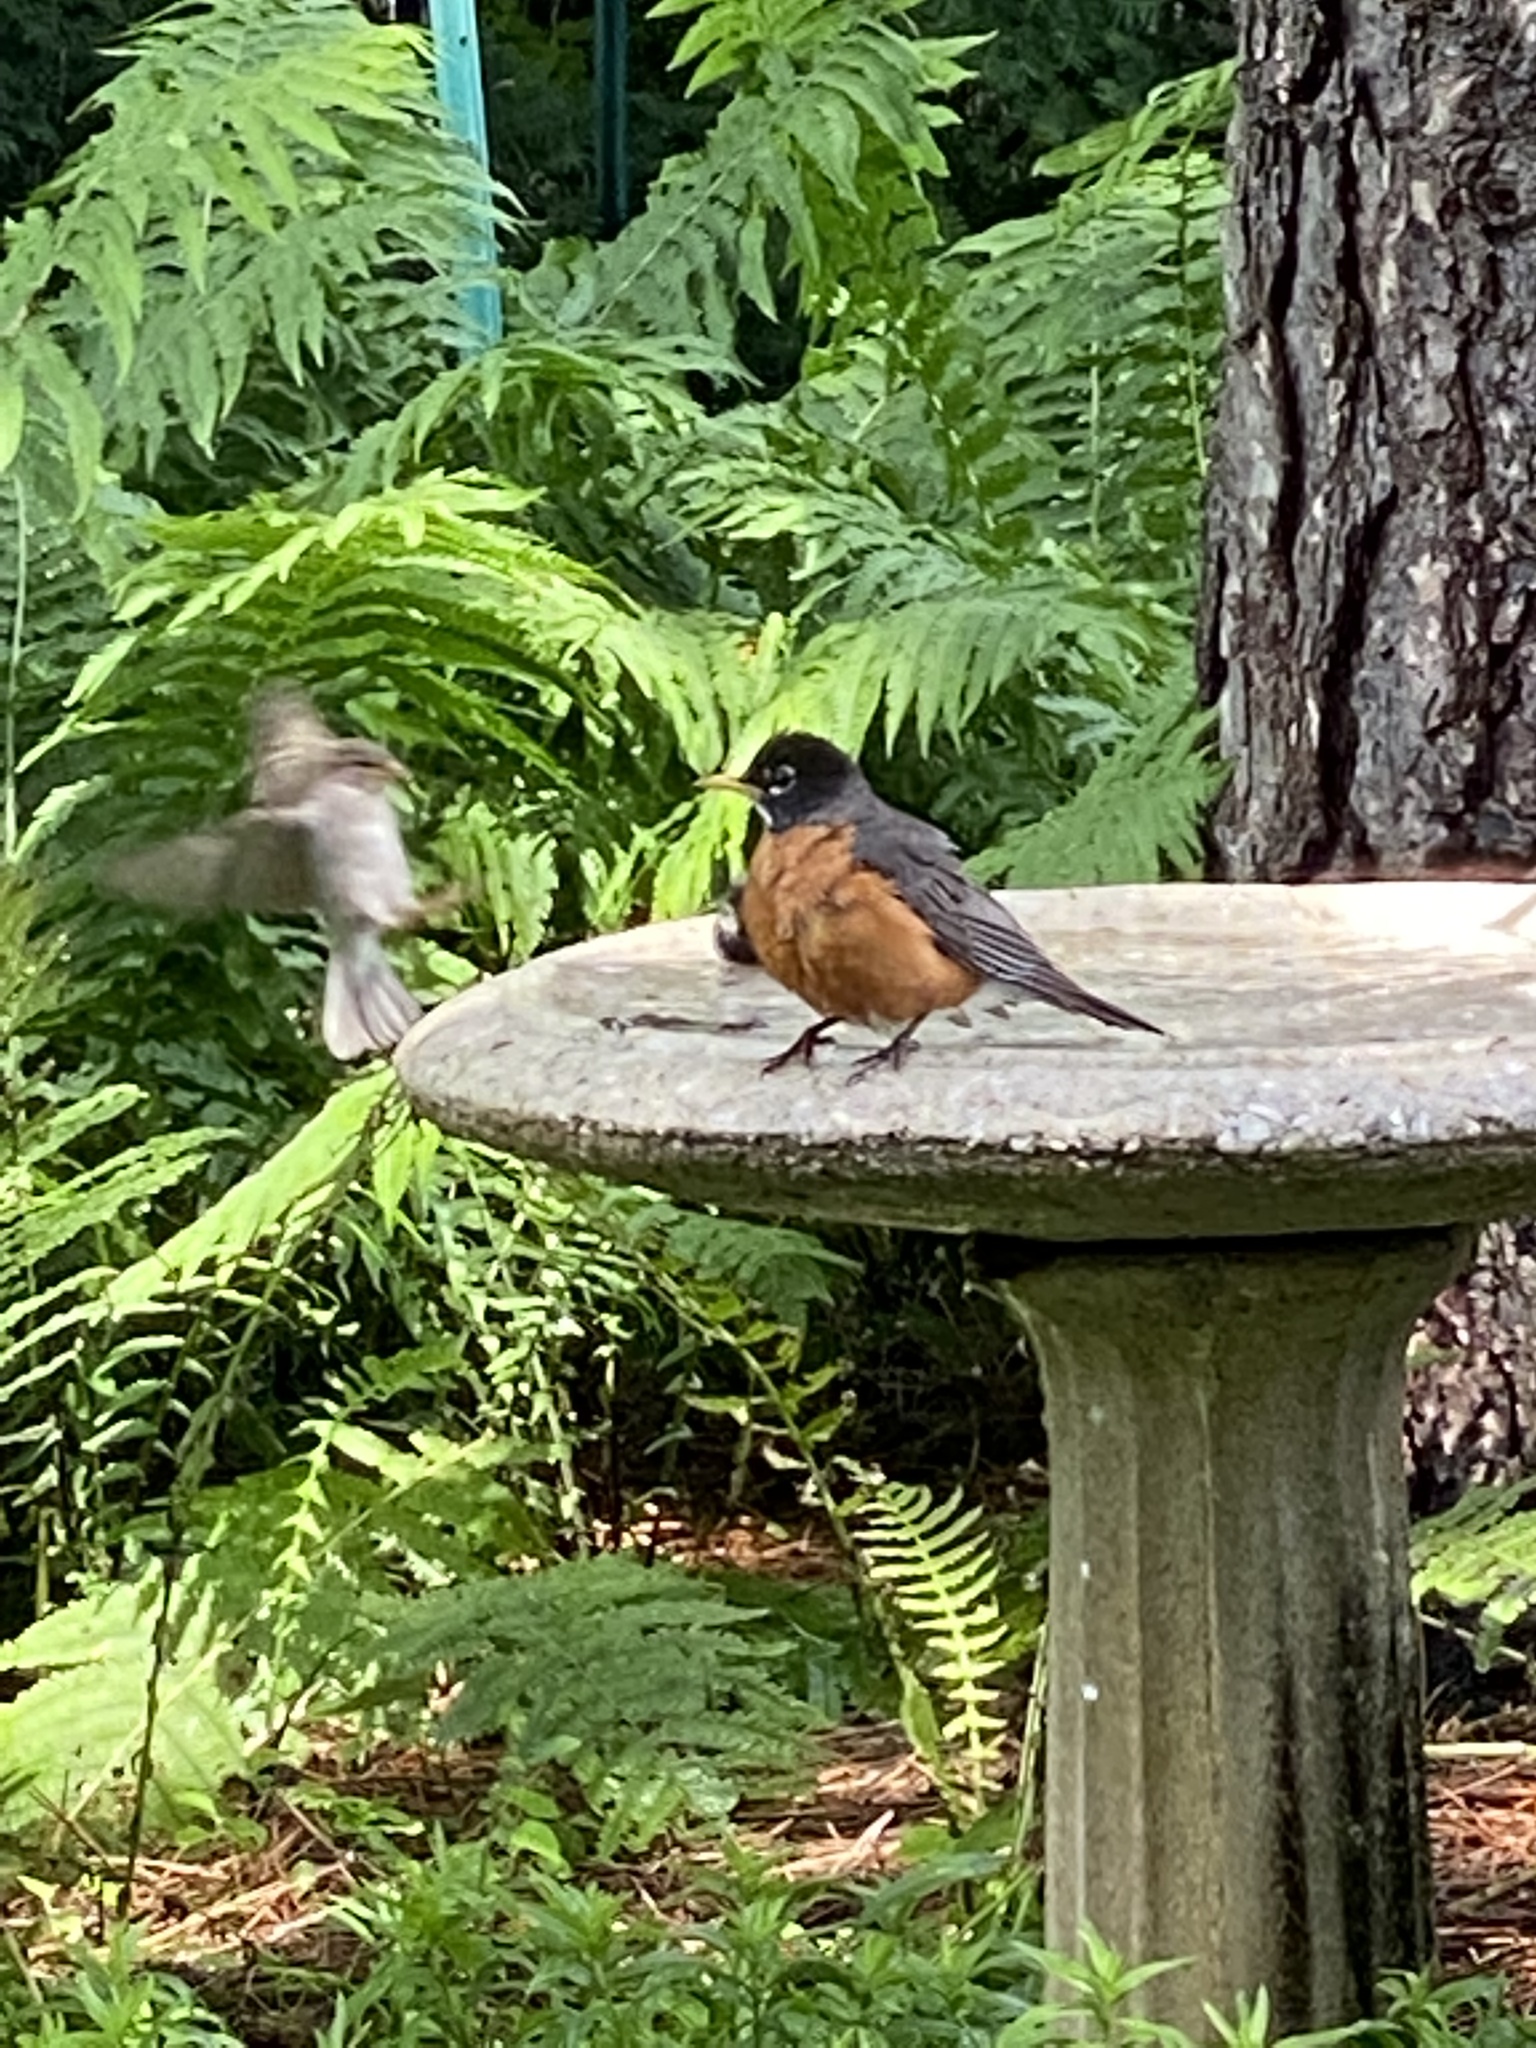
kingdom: Animalia
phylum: Chordata
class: Aves
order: Passeriformes
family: Turdidae
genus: Turdus
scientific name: Turdus migratorius
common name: American robin
